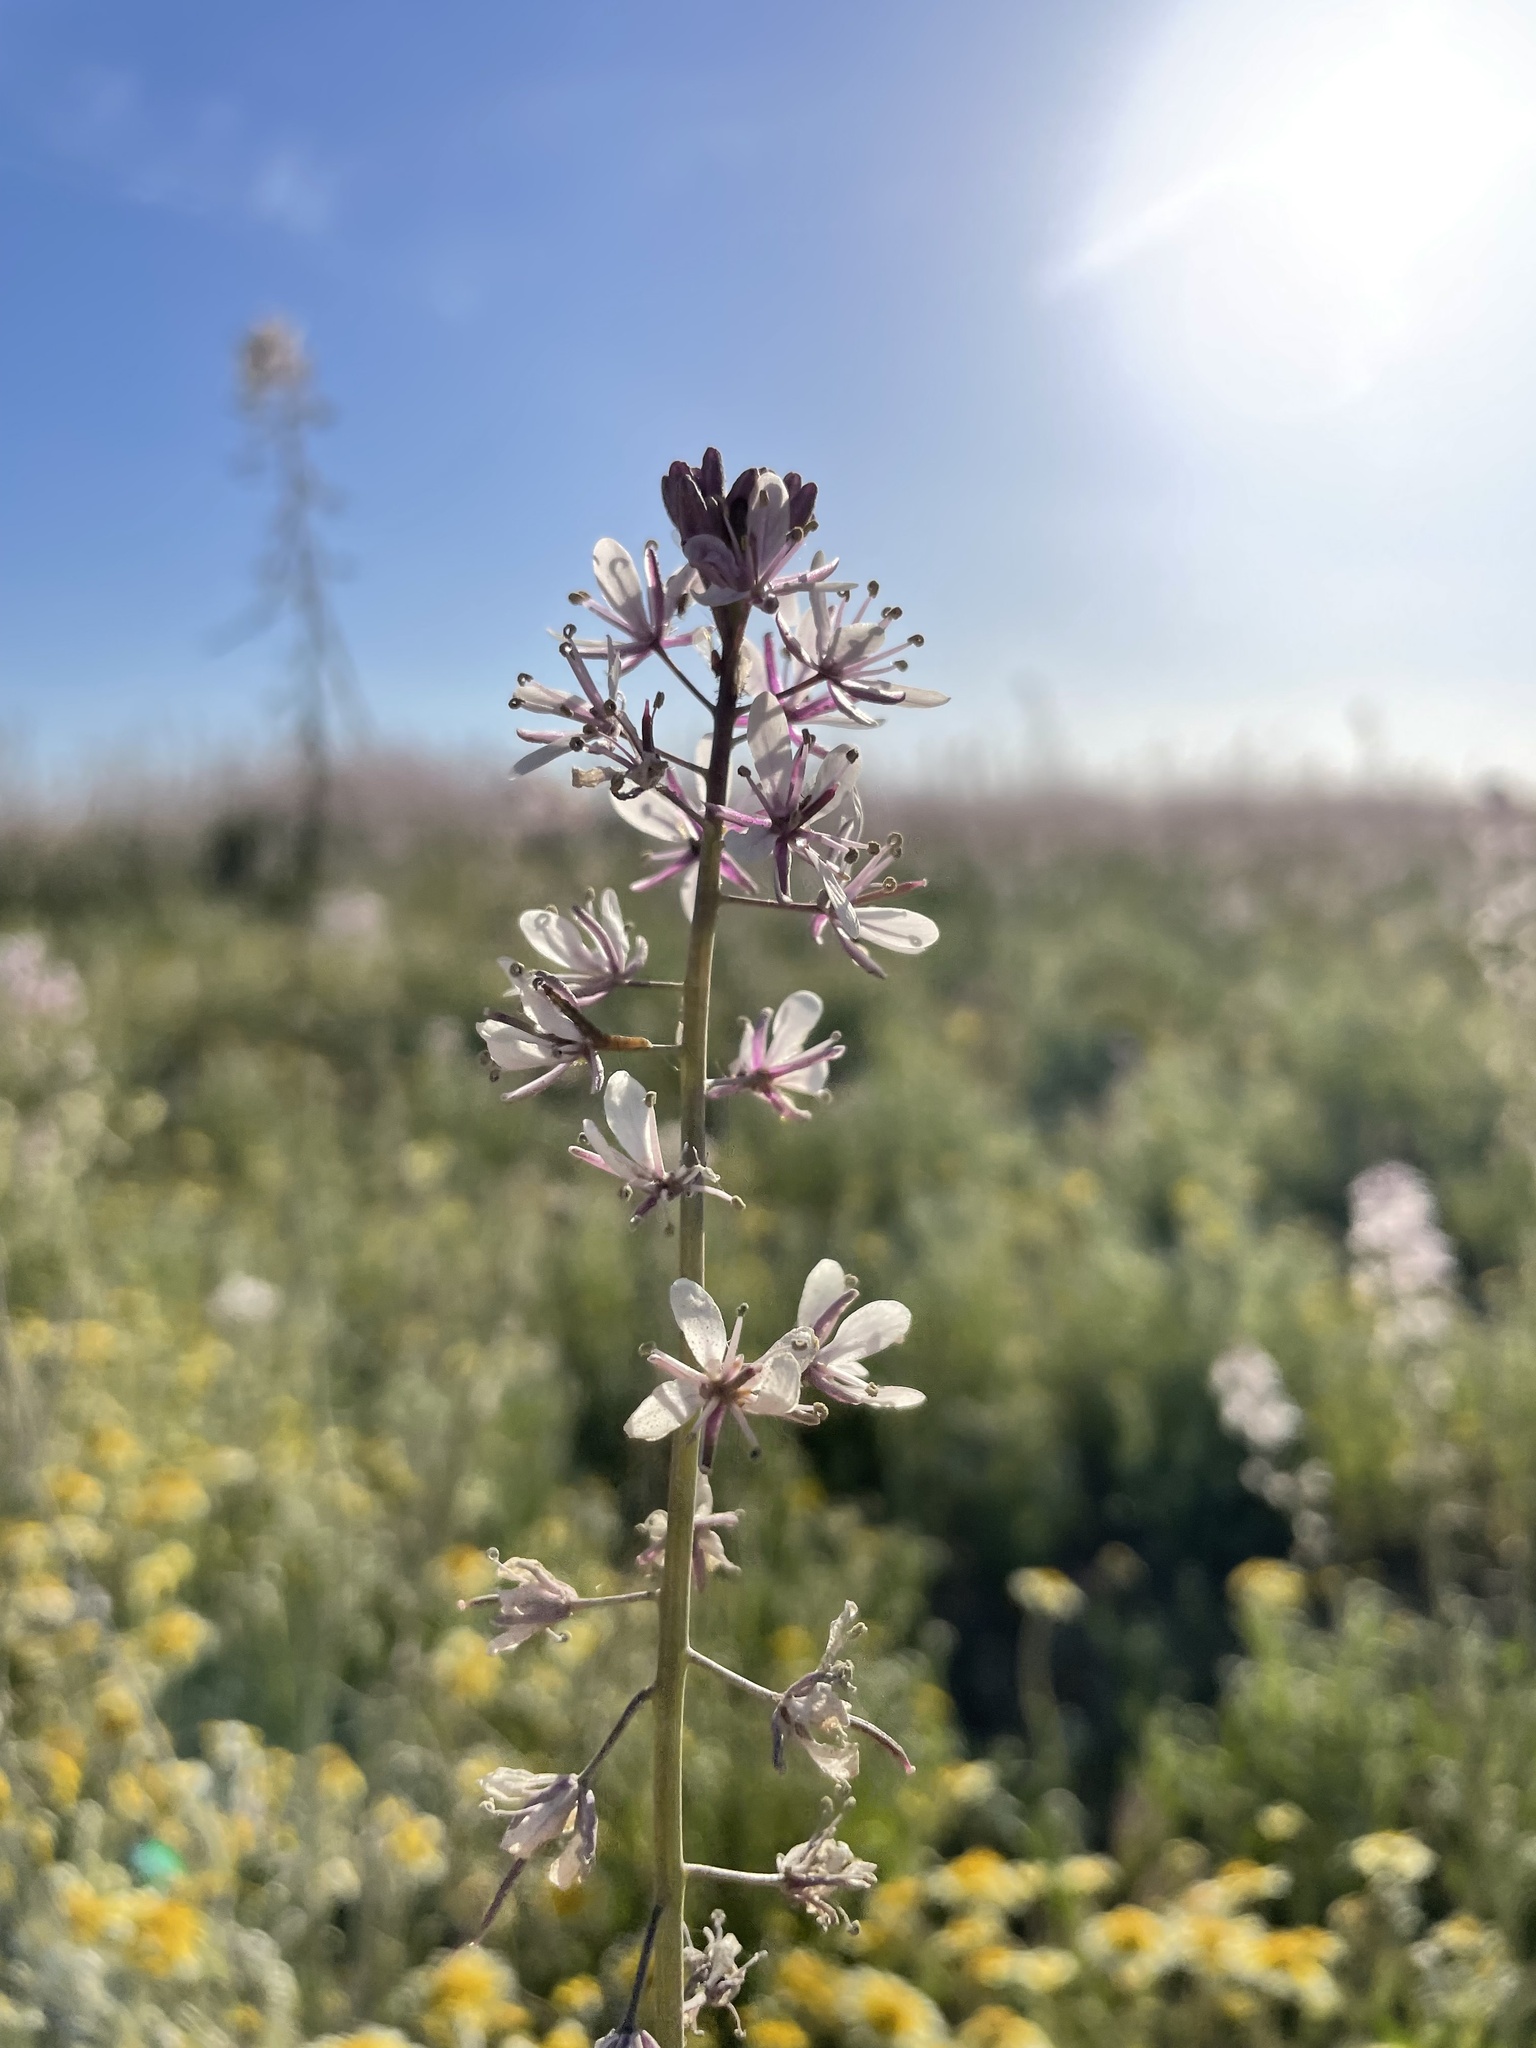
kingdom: Plantae
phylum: Tracheophyta
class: Magnoliopsida
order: Brassicales
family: Brassicaceae
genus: Streptanthus
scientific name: Streptanthus anceps
